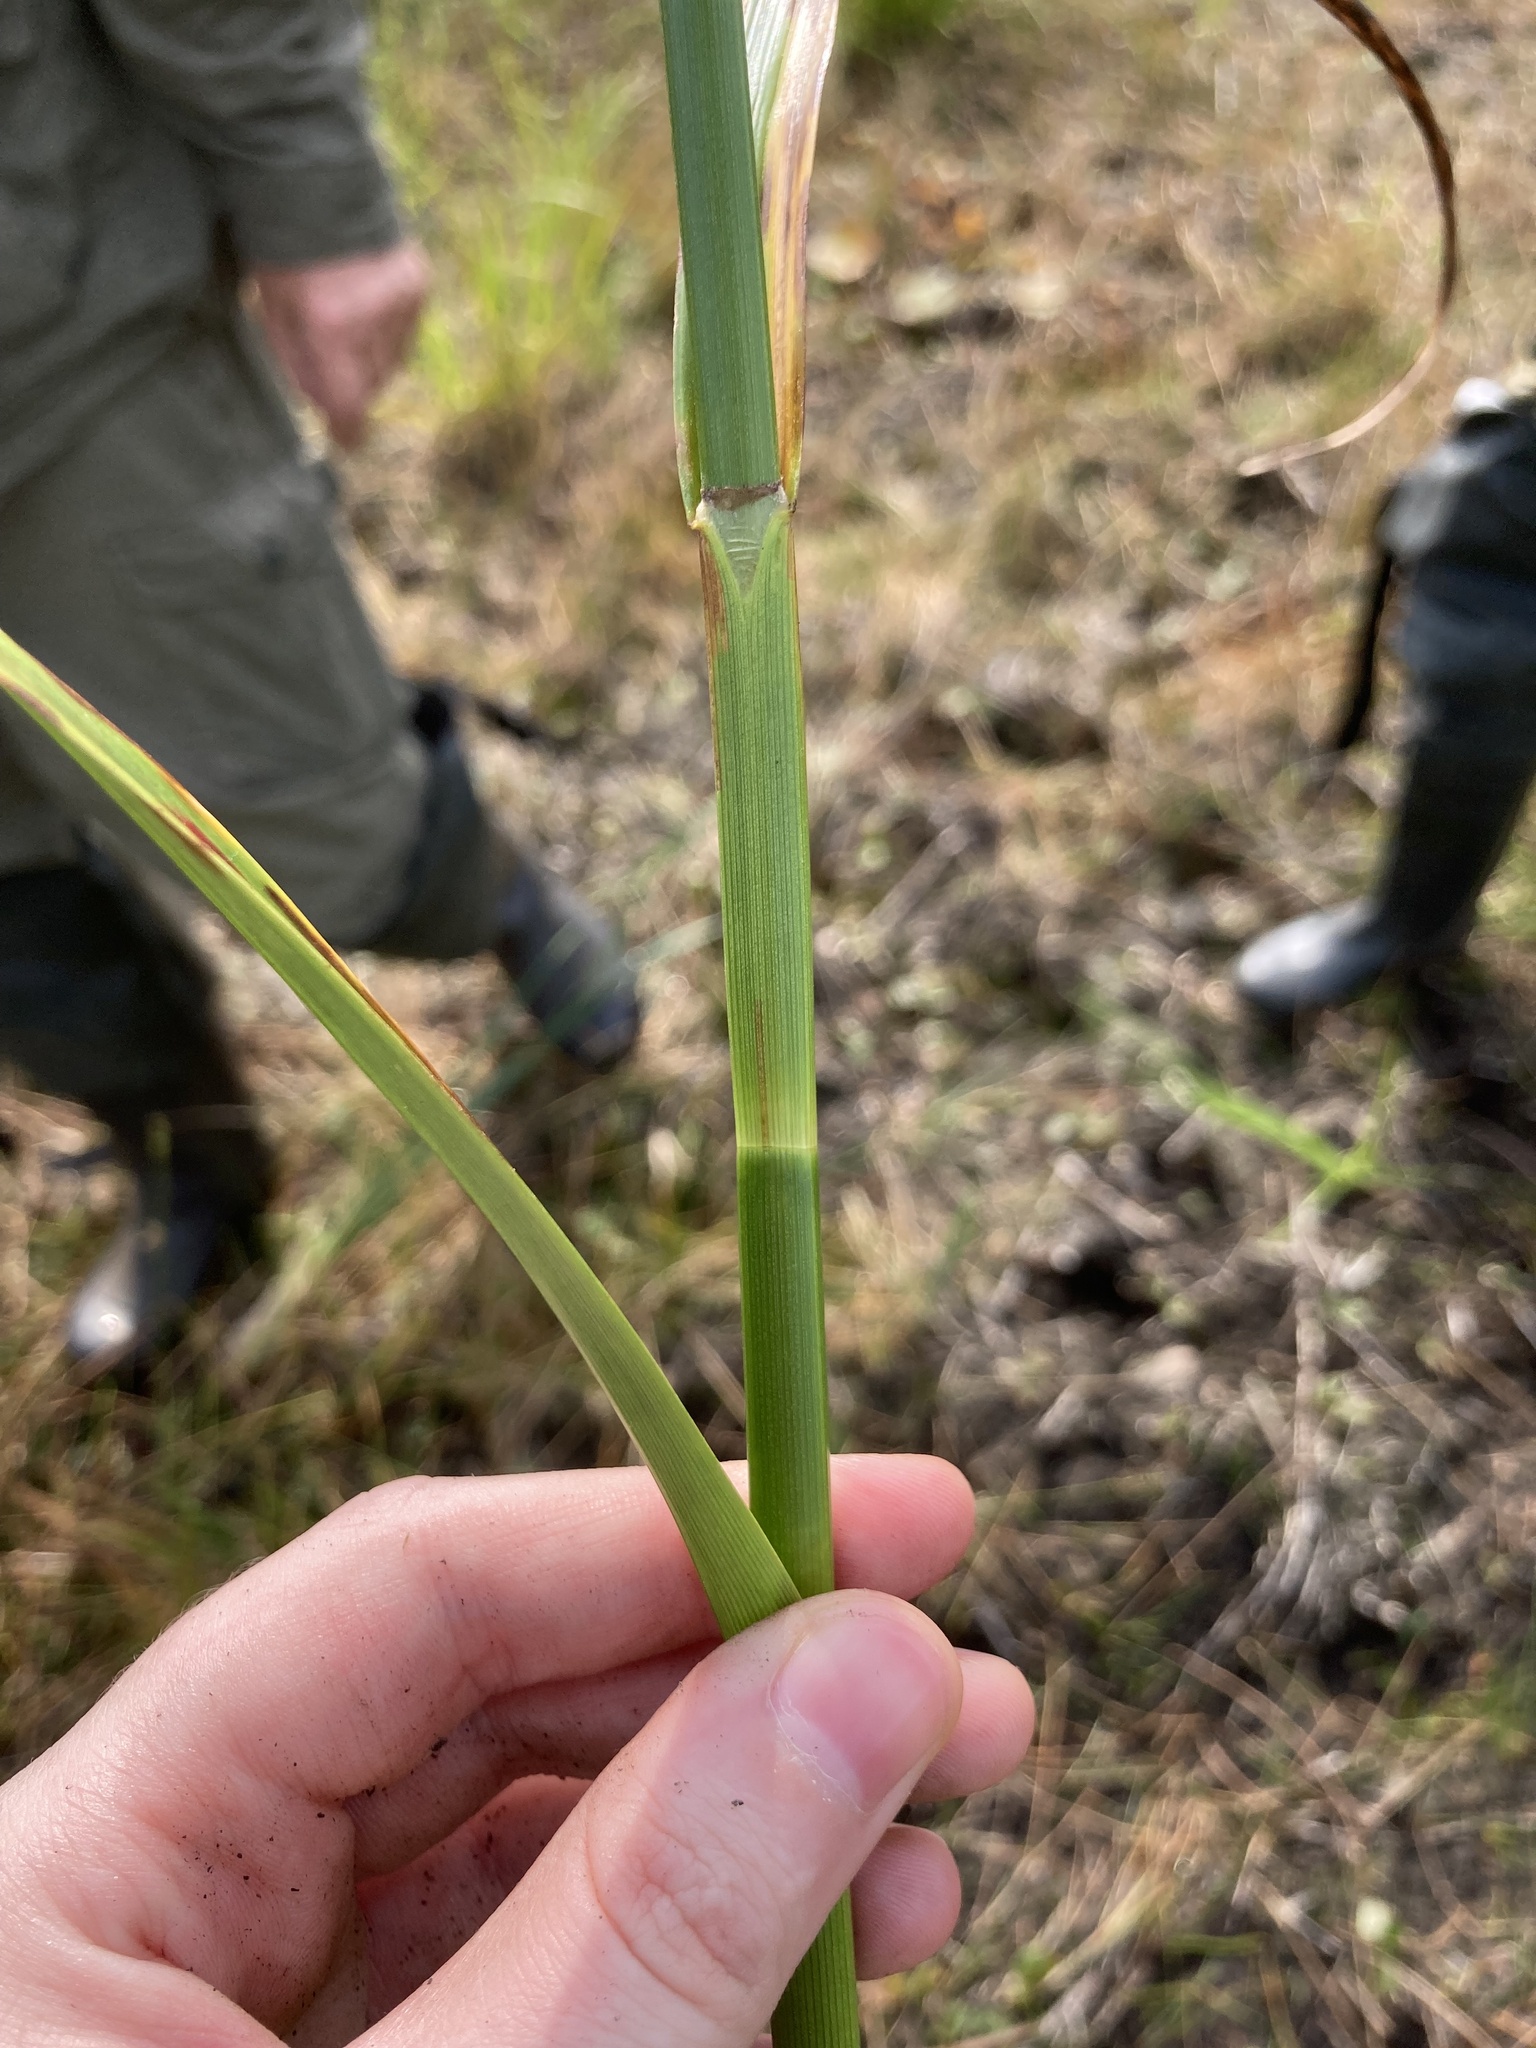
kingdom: Plantae
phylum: Tracheophyta
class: Liliopsida
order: Poales
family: Cyperaceae
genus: Scirpus
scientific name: Scirpus radicans
